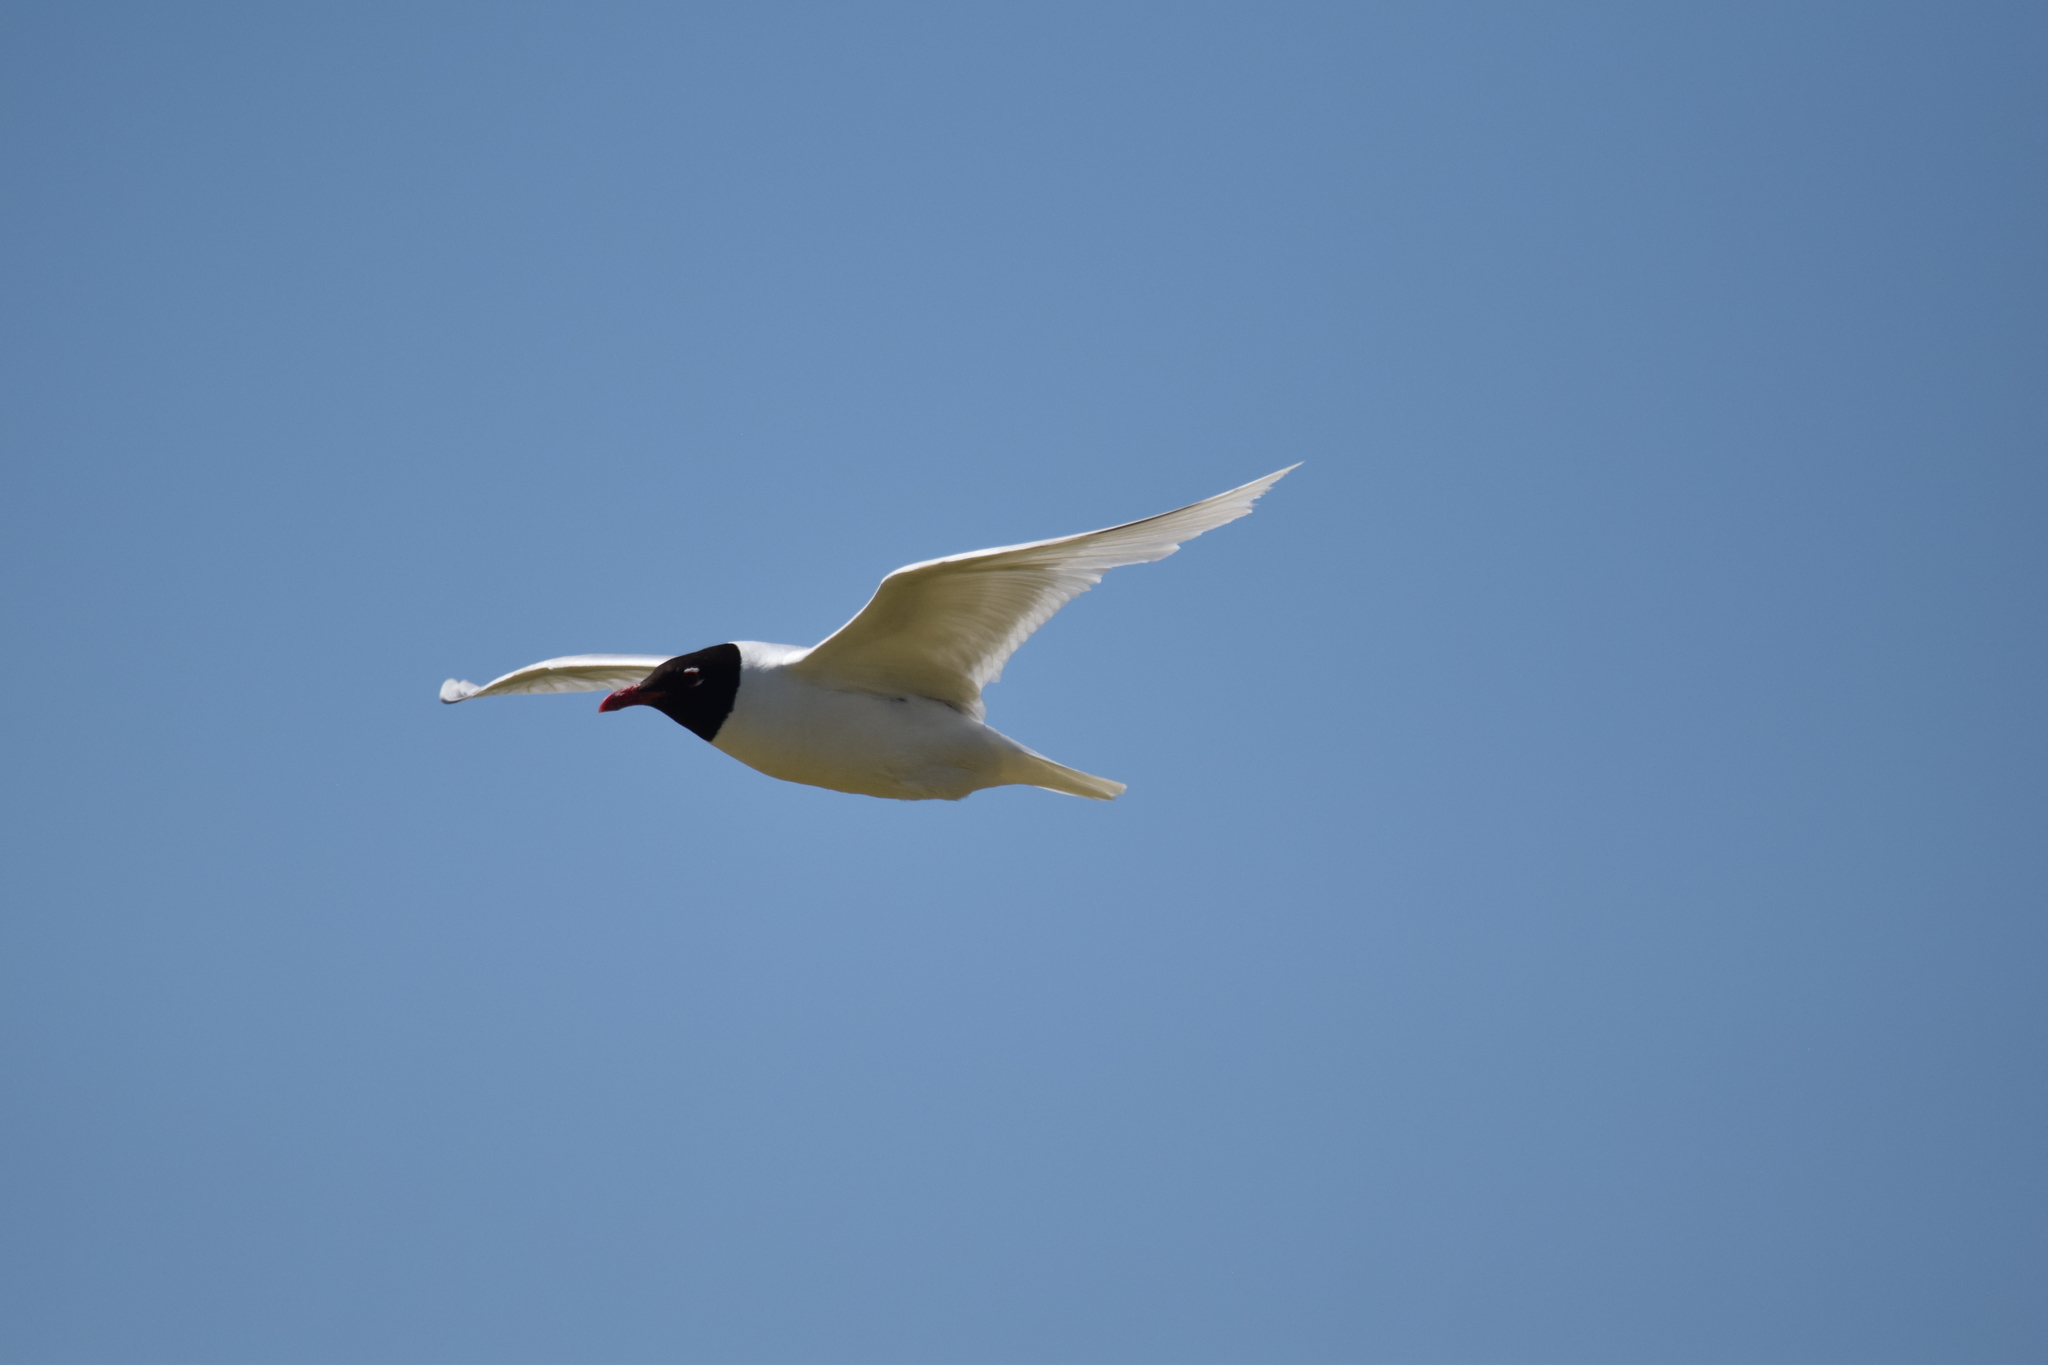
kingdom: Animalia
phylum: Chordata
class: Aves
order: Charadriiformes
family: Laridae
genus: Ichthyaetus
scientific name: Ichthyaetus melanocephalus
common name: Mediterranean gull
